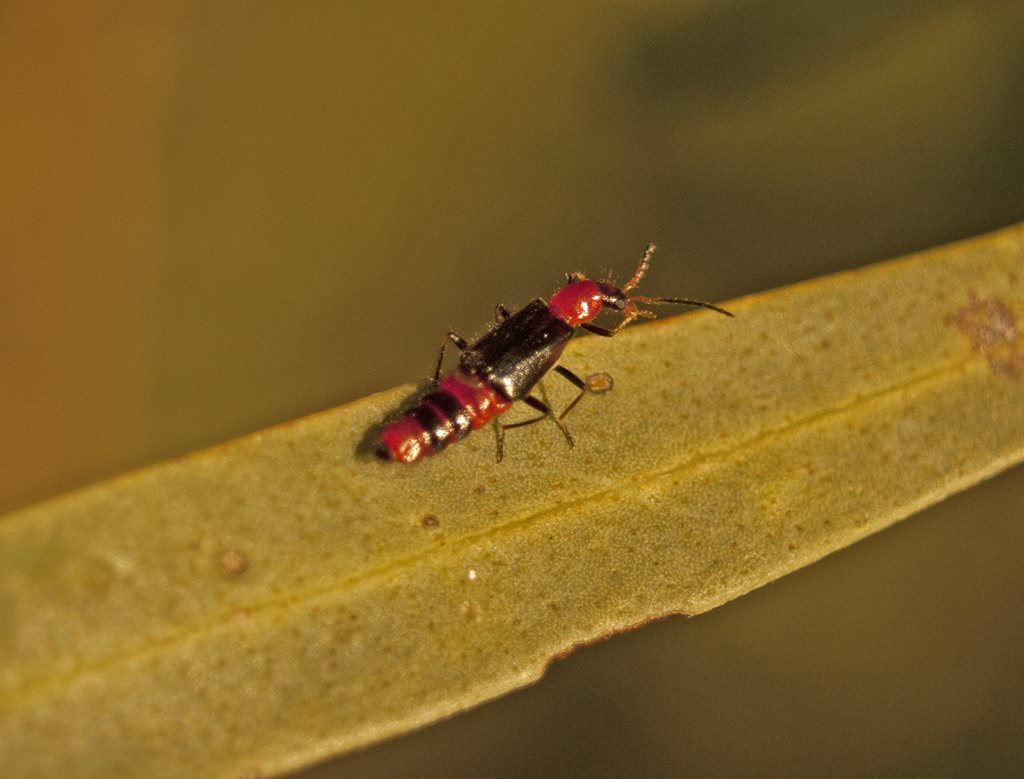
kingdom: Animalia
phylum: Arthropoda
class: Insecta
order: Coleoptera
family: Melyridae
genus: Carphurus
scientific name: Carphurus
